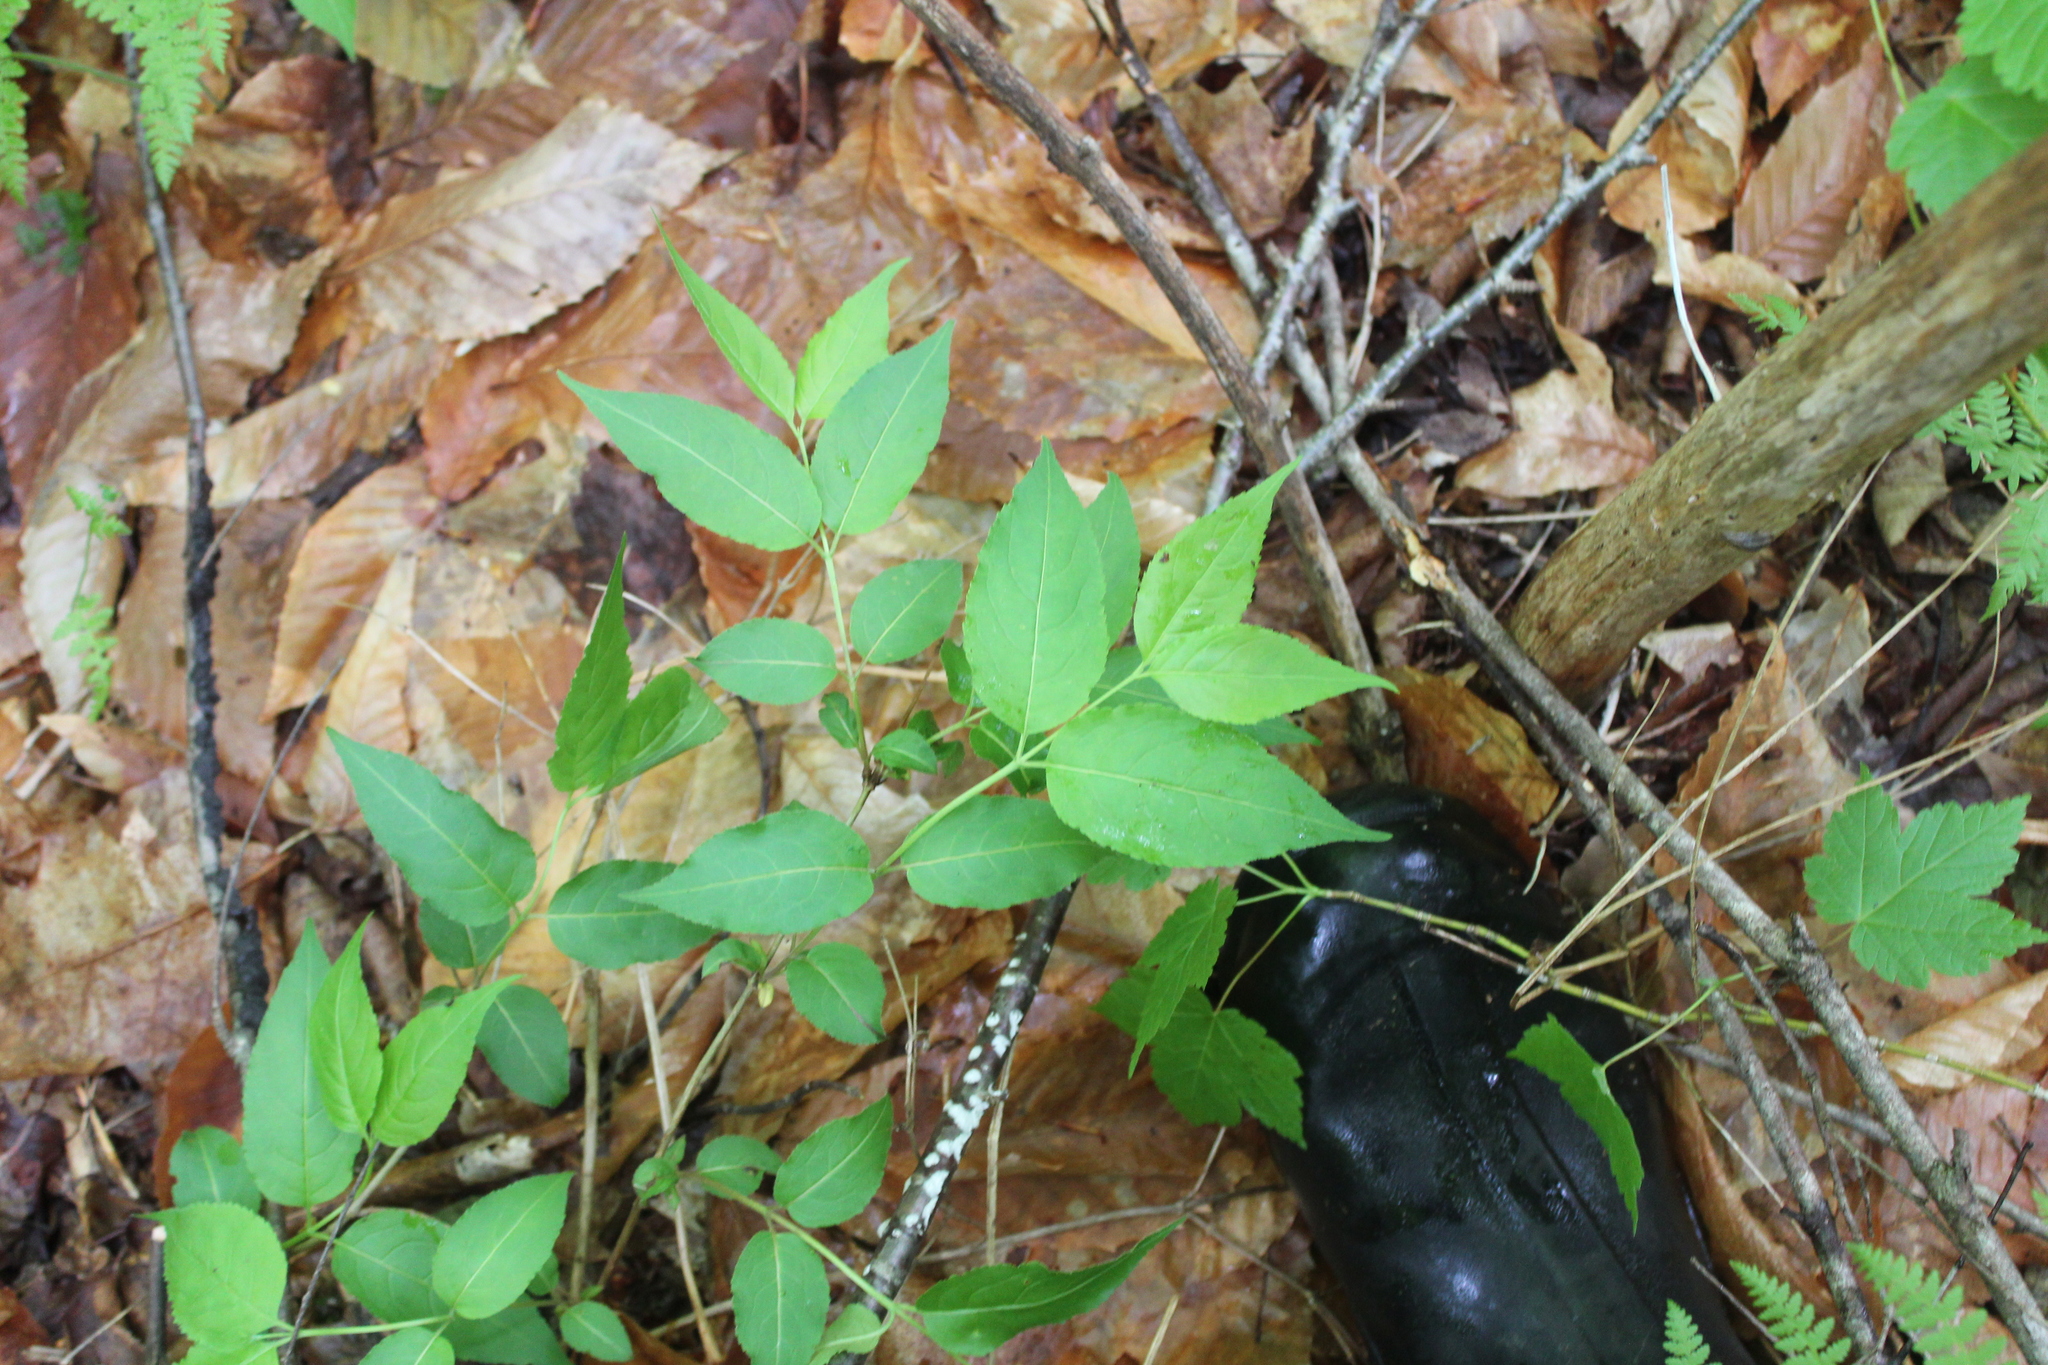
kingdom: Plantae
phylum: Tracheophyta
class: Magnoliopsida
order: Dipsacales
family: Caprifoliaceae
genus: Diervilla
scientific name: Diervilla lonicera
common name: Bush-honeysuckle
